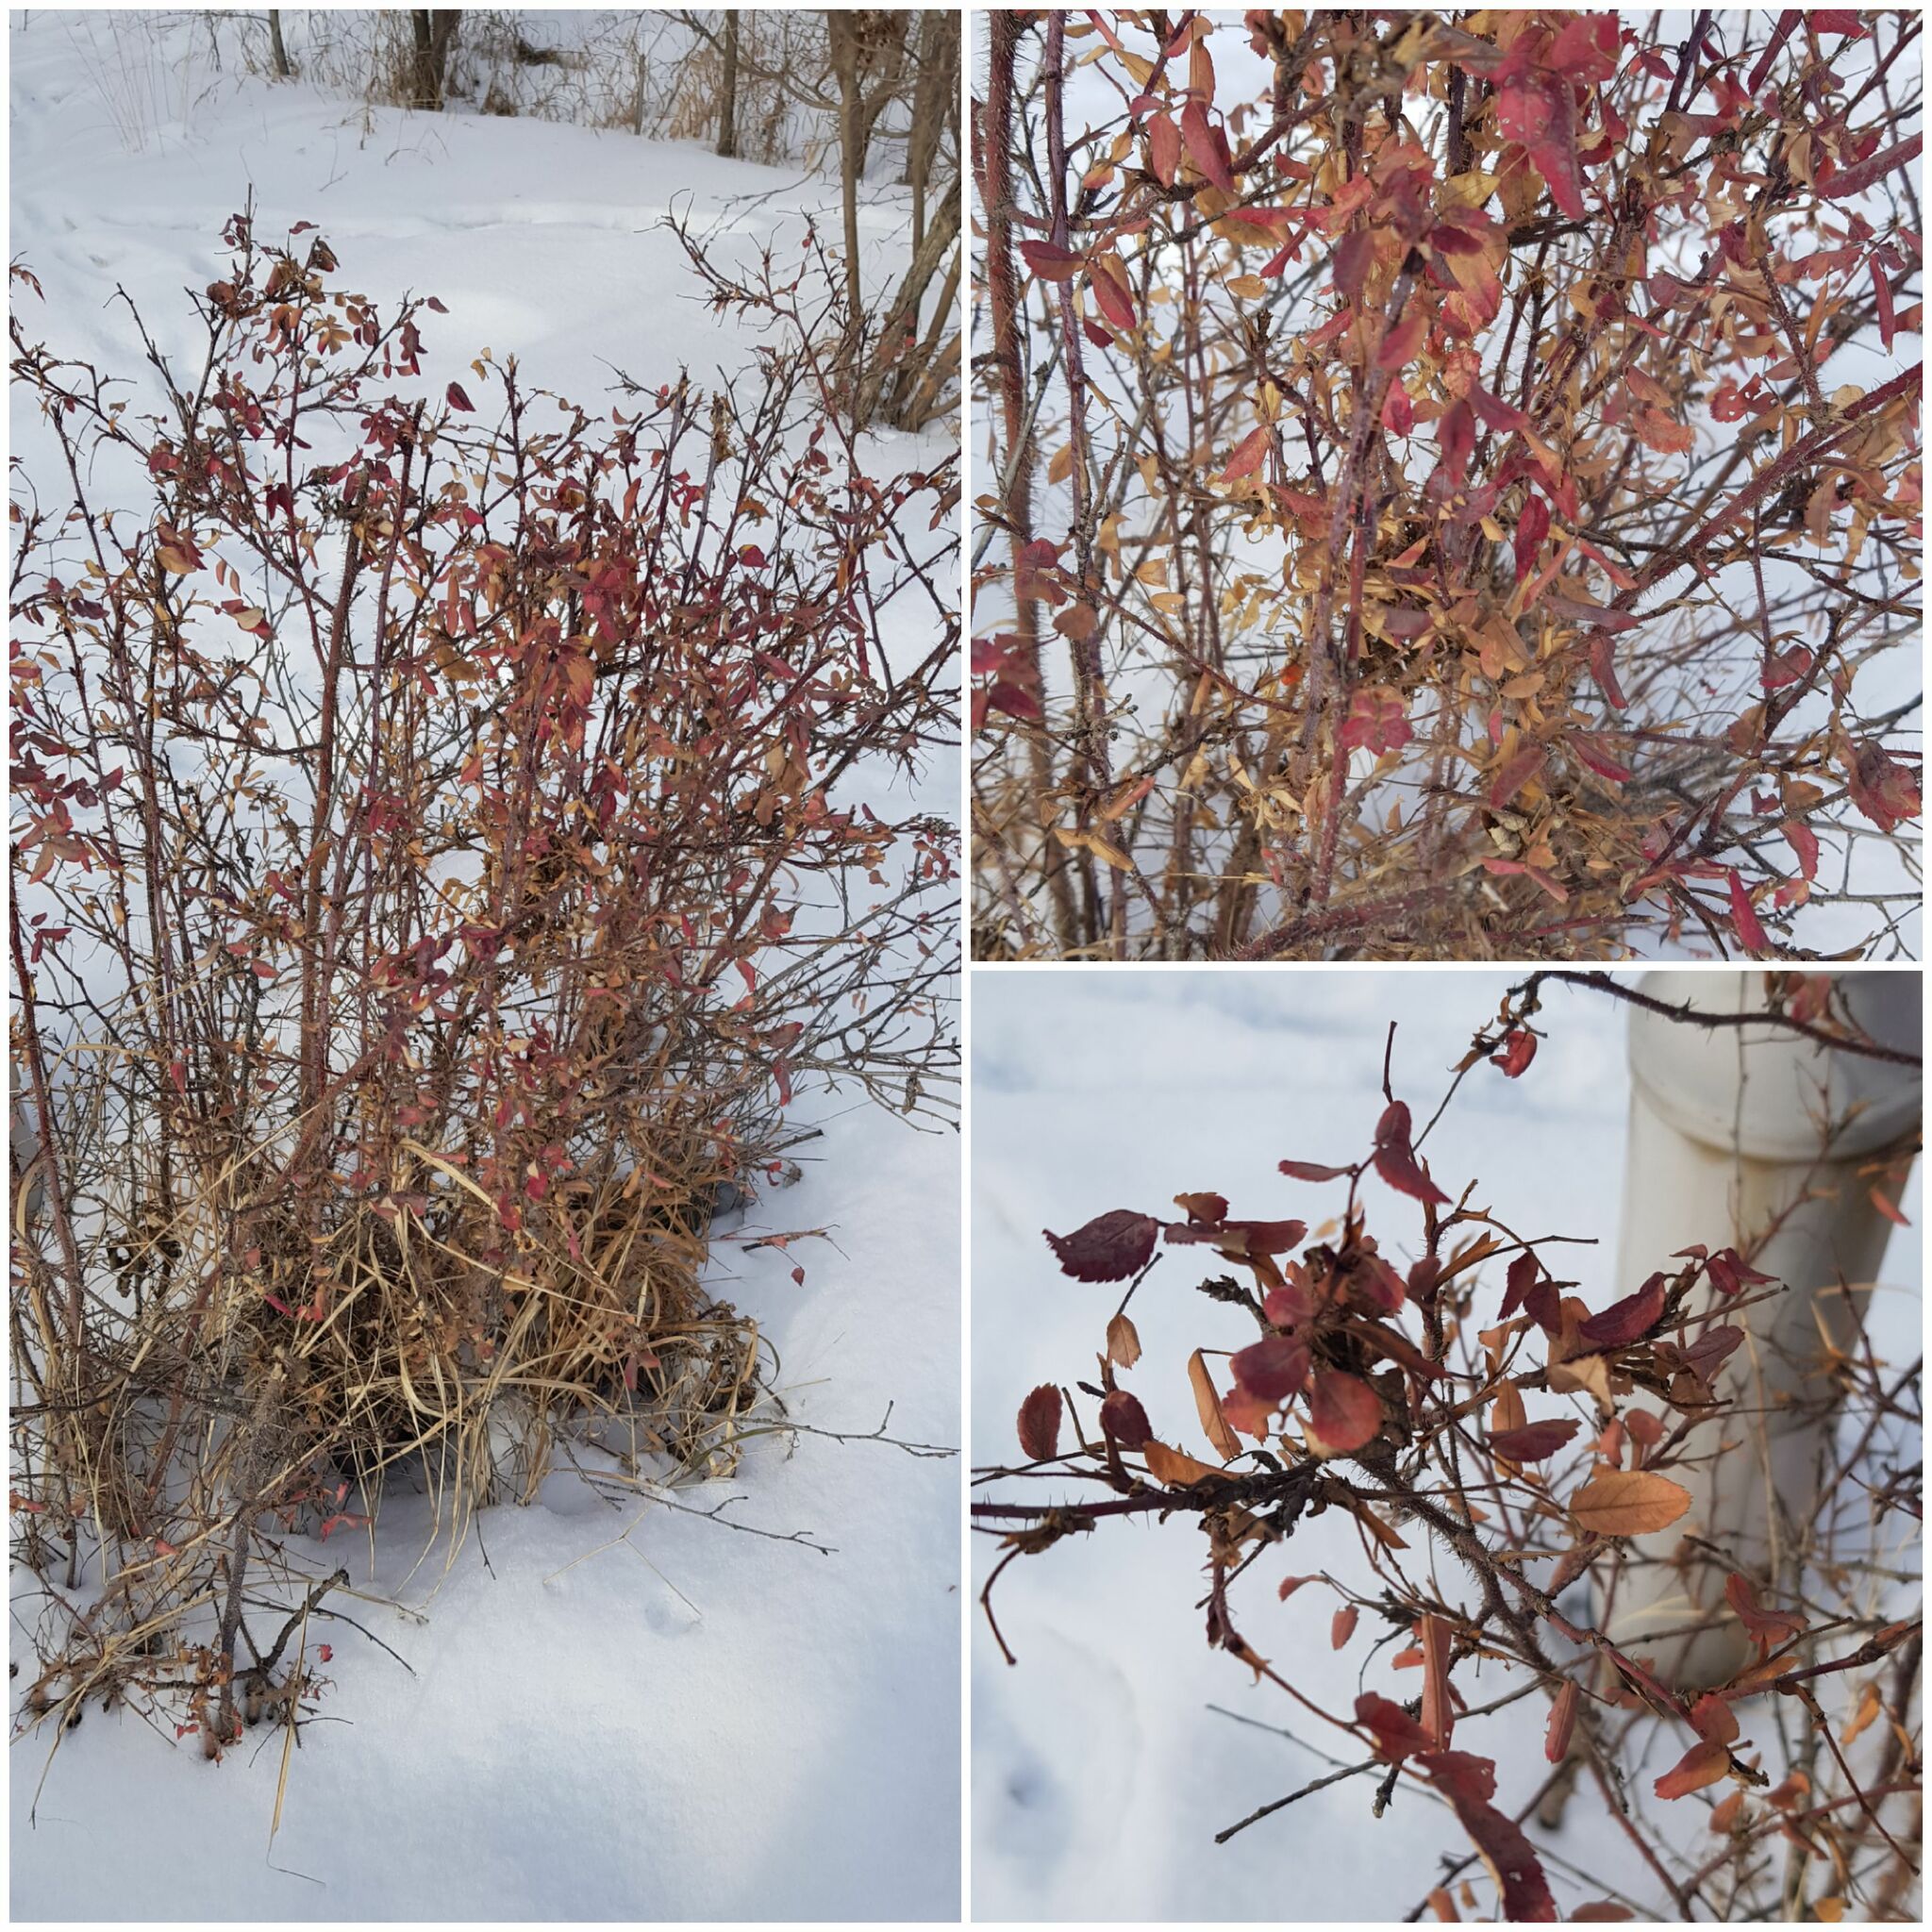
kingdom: Plantae
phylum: Tracheophyta
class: Magnoliopsida
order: Rosales
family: Rosaceae
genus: Rosa
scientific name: Rosa acicularis
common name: Prickly rose
